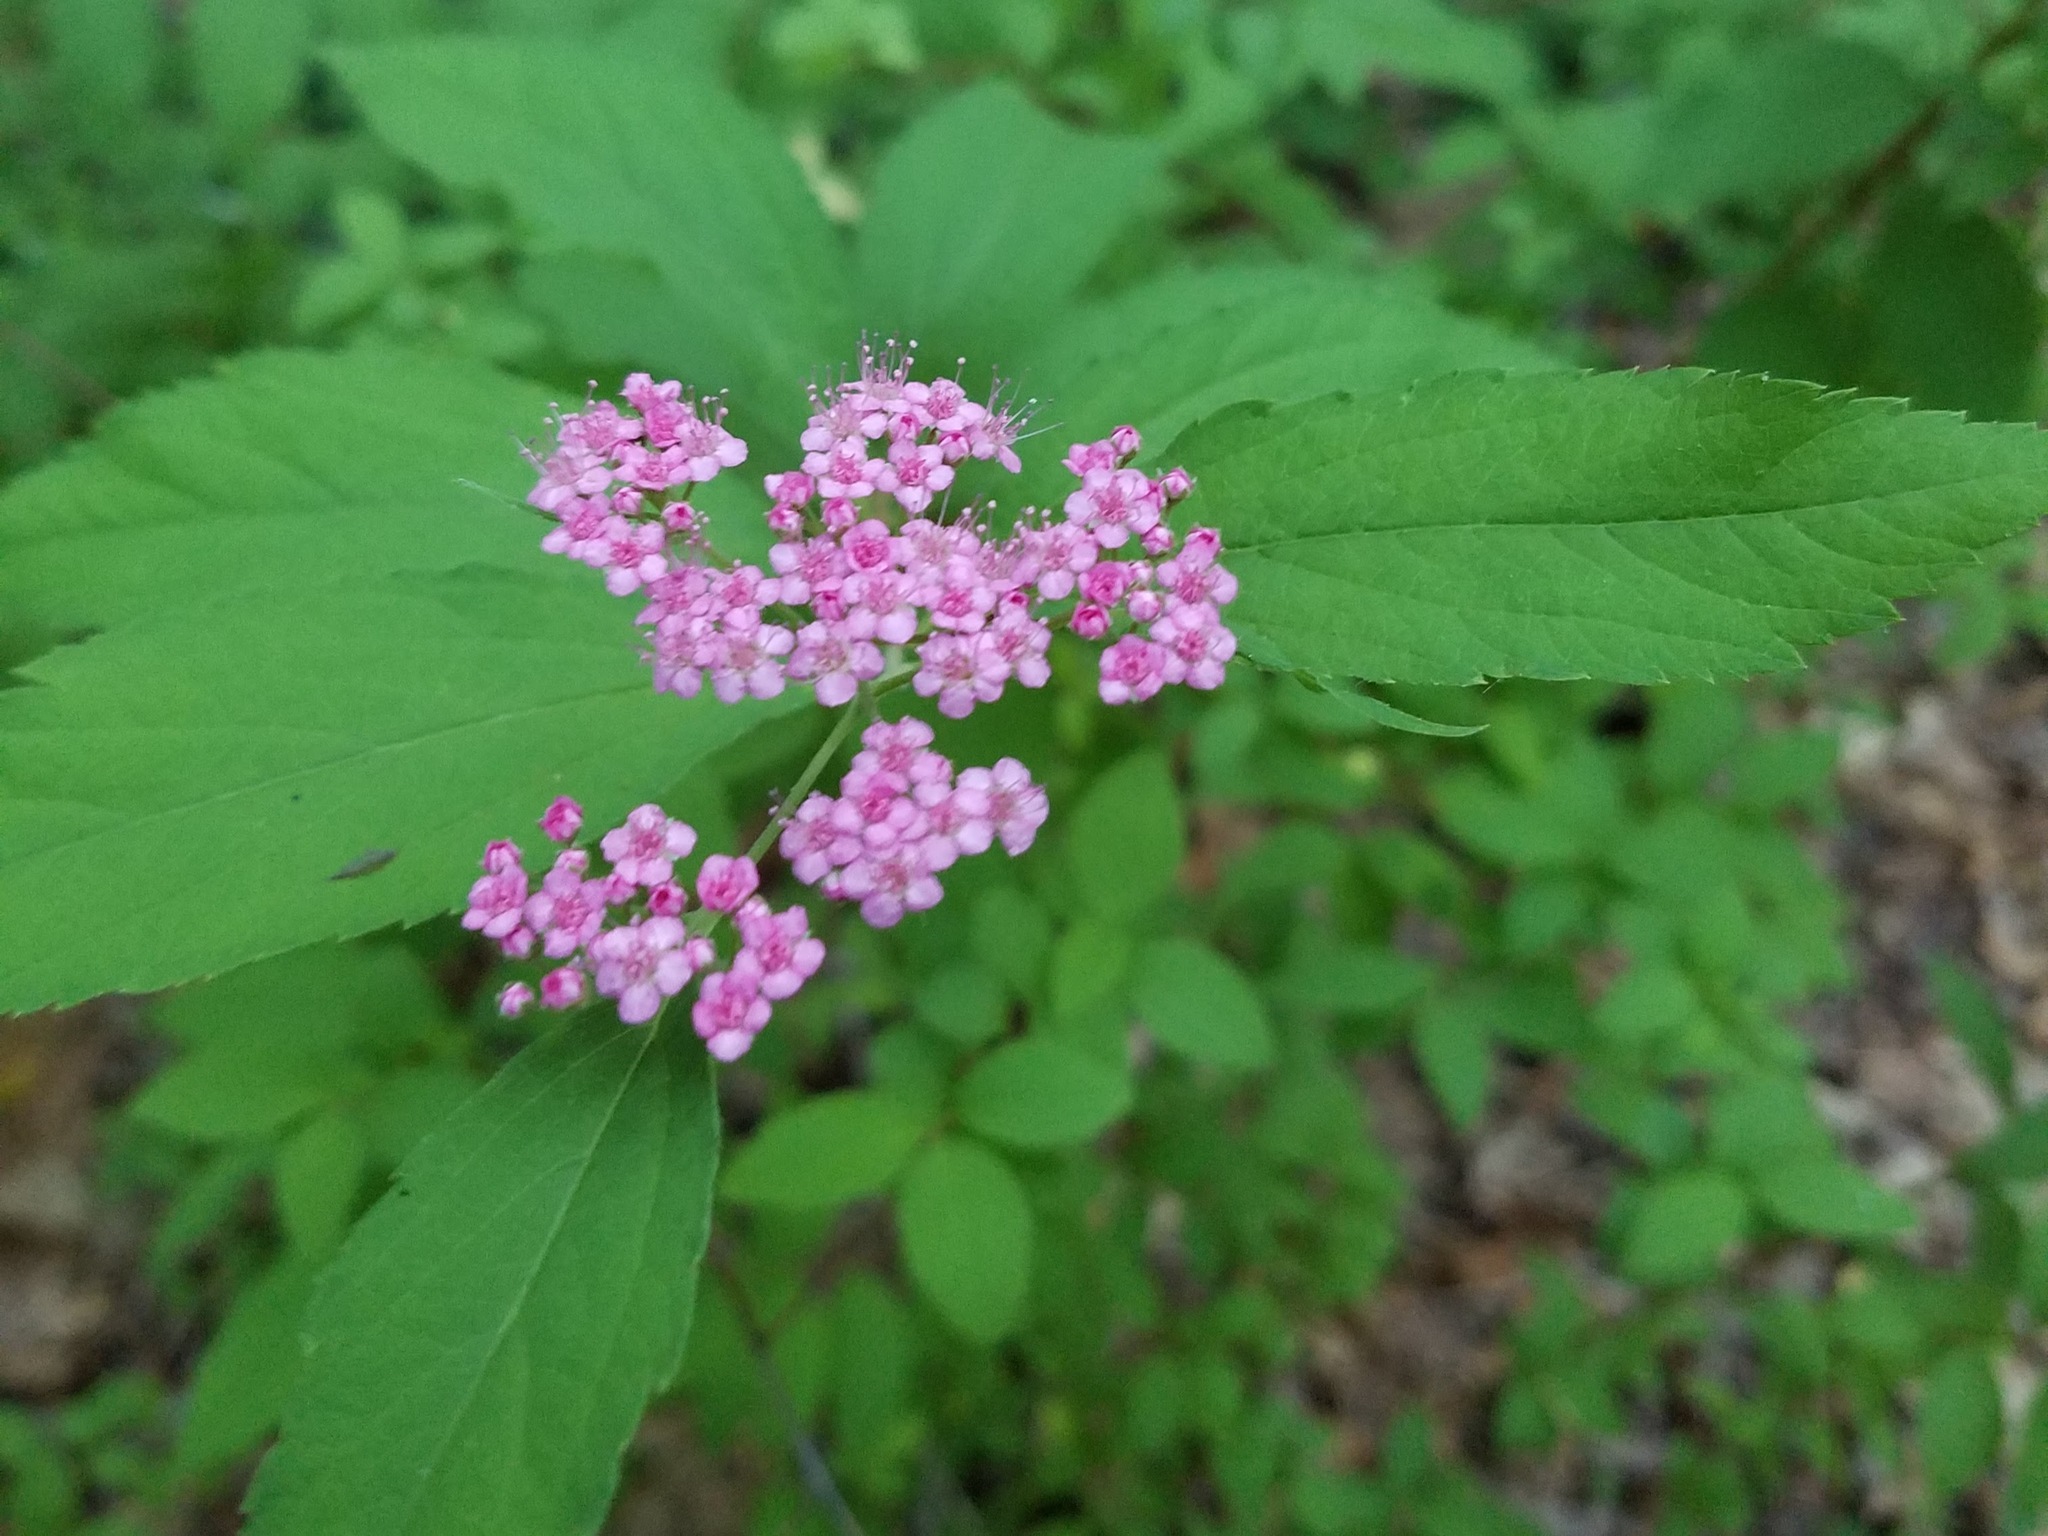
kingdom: Plantae
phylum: Tracheophyta
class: Magnoliopsida
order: Rosales
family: Rosaceae
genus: Spiraea
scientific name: Spiraea japonica
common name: Japanese spiraea
